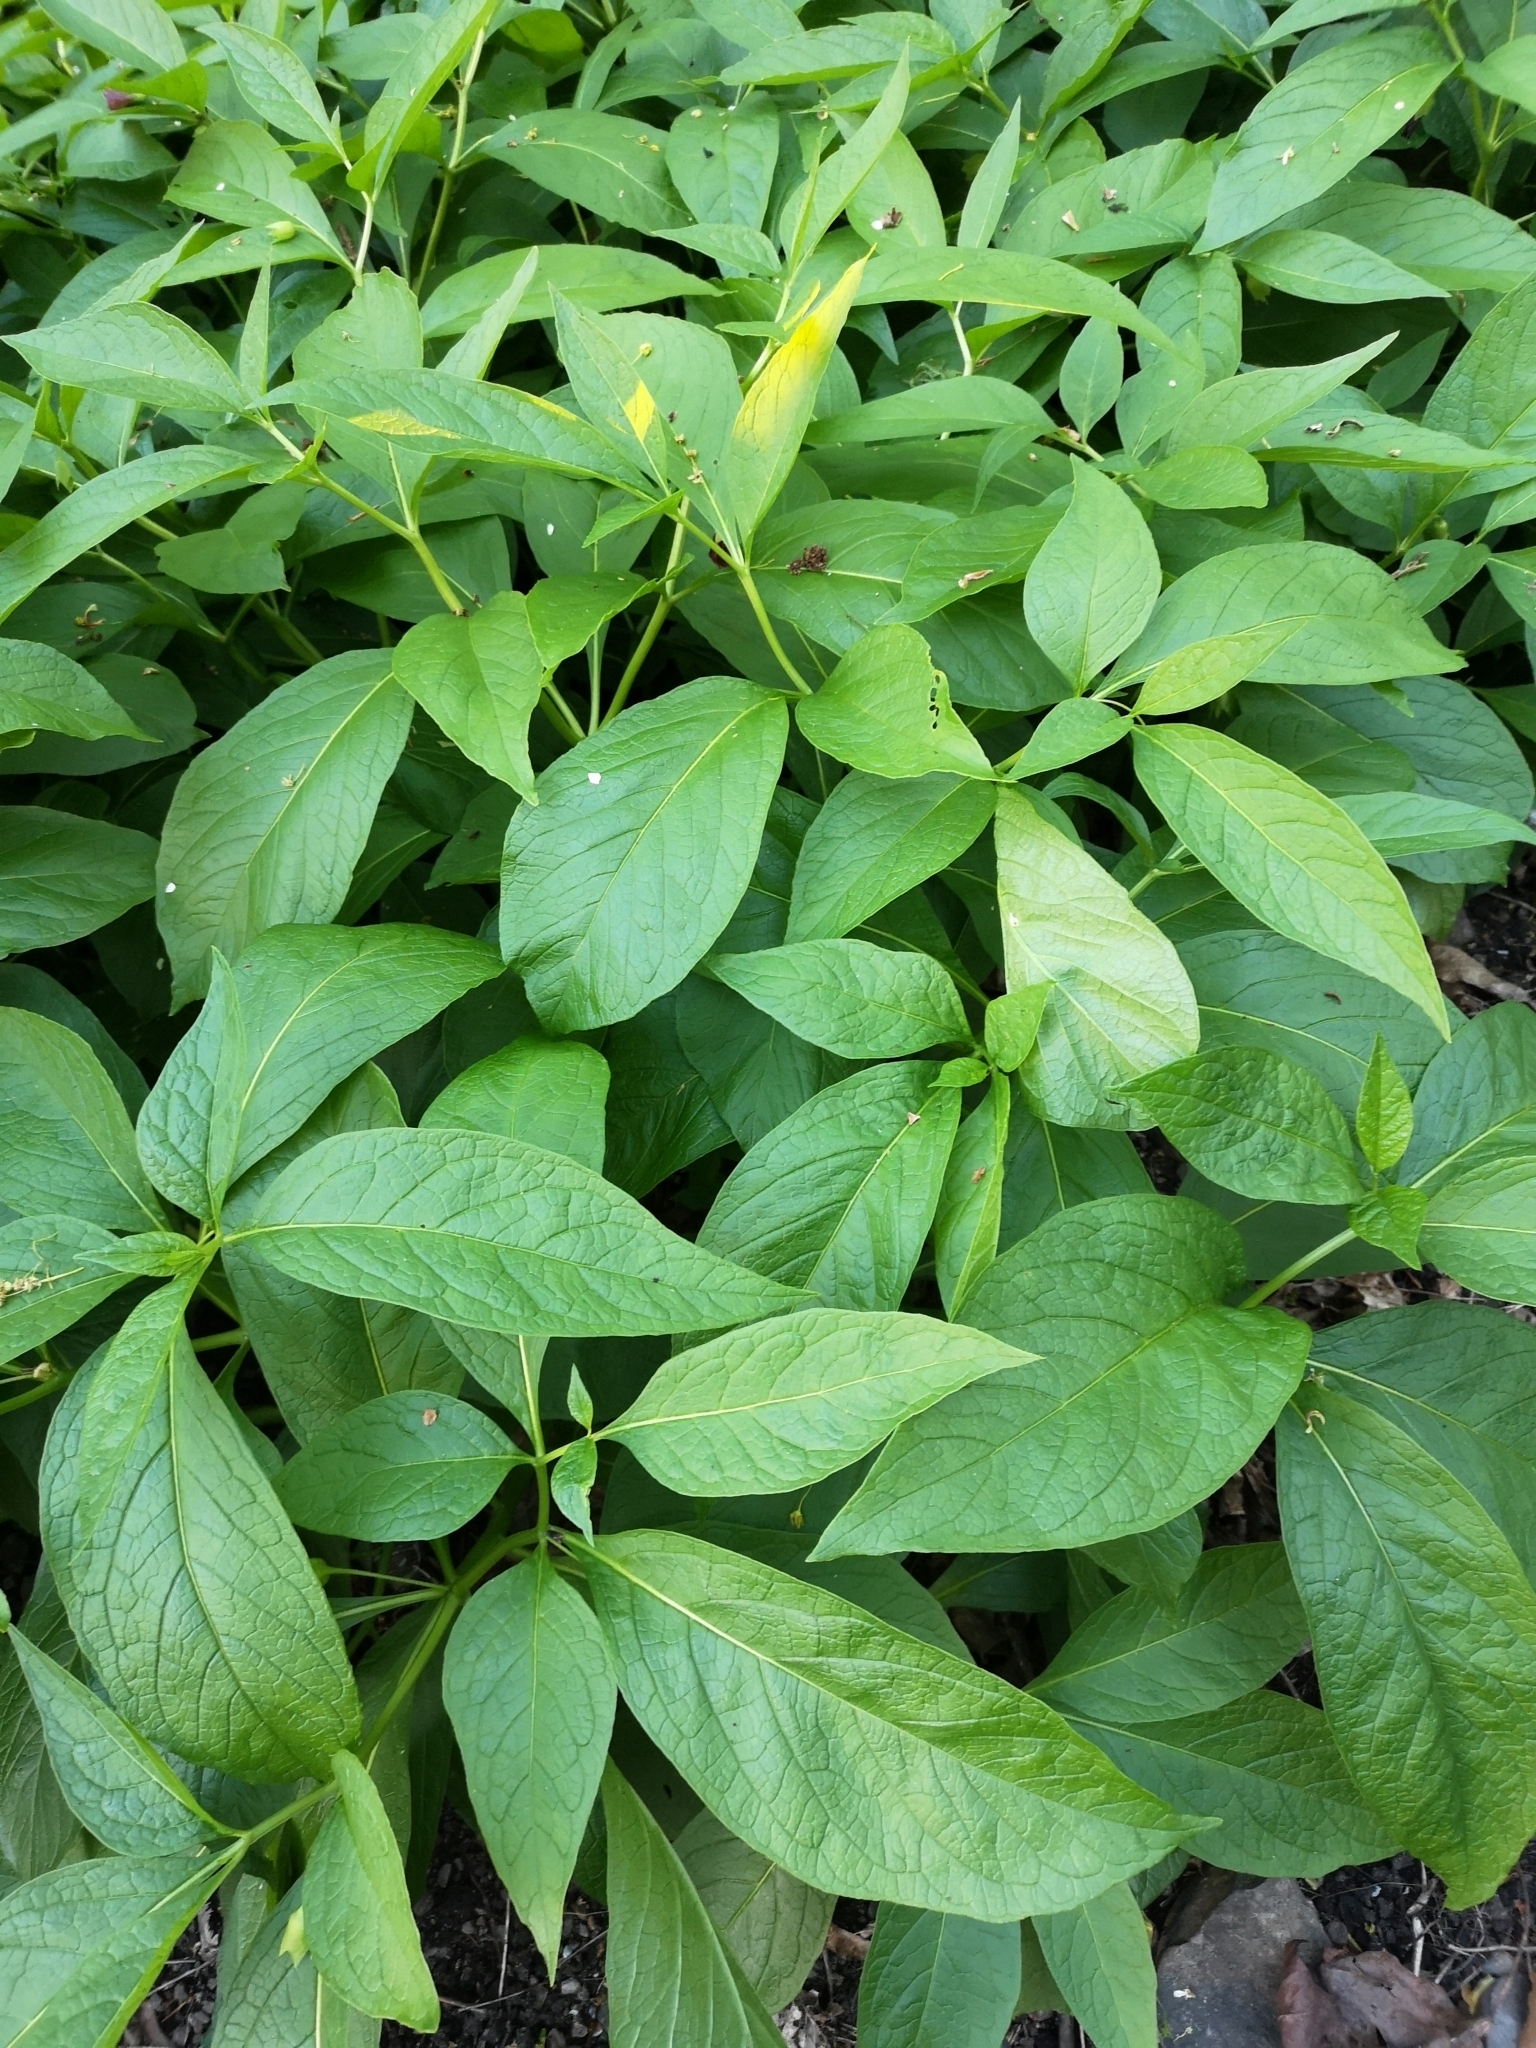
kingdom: Plantae
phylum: Tracheophyta
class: Magnoliopsida
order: Solanales
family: Solanaceae
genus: Scopolia
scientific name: Scopolia carniolica
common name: Scopolia
